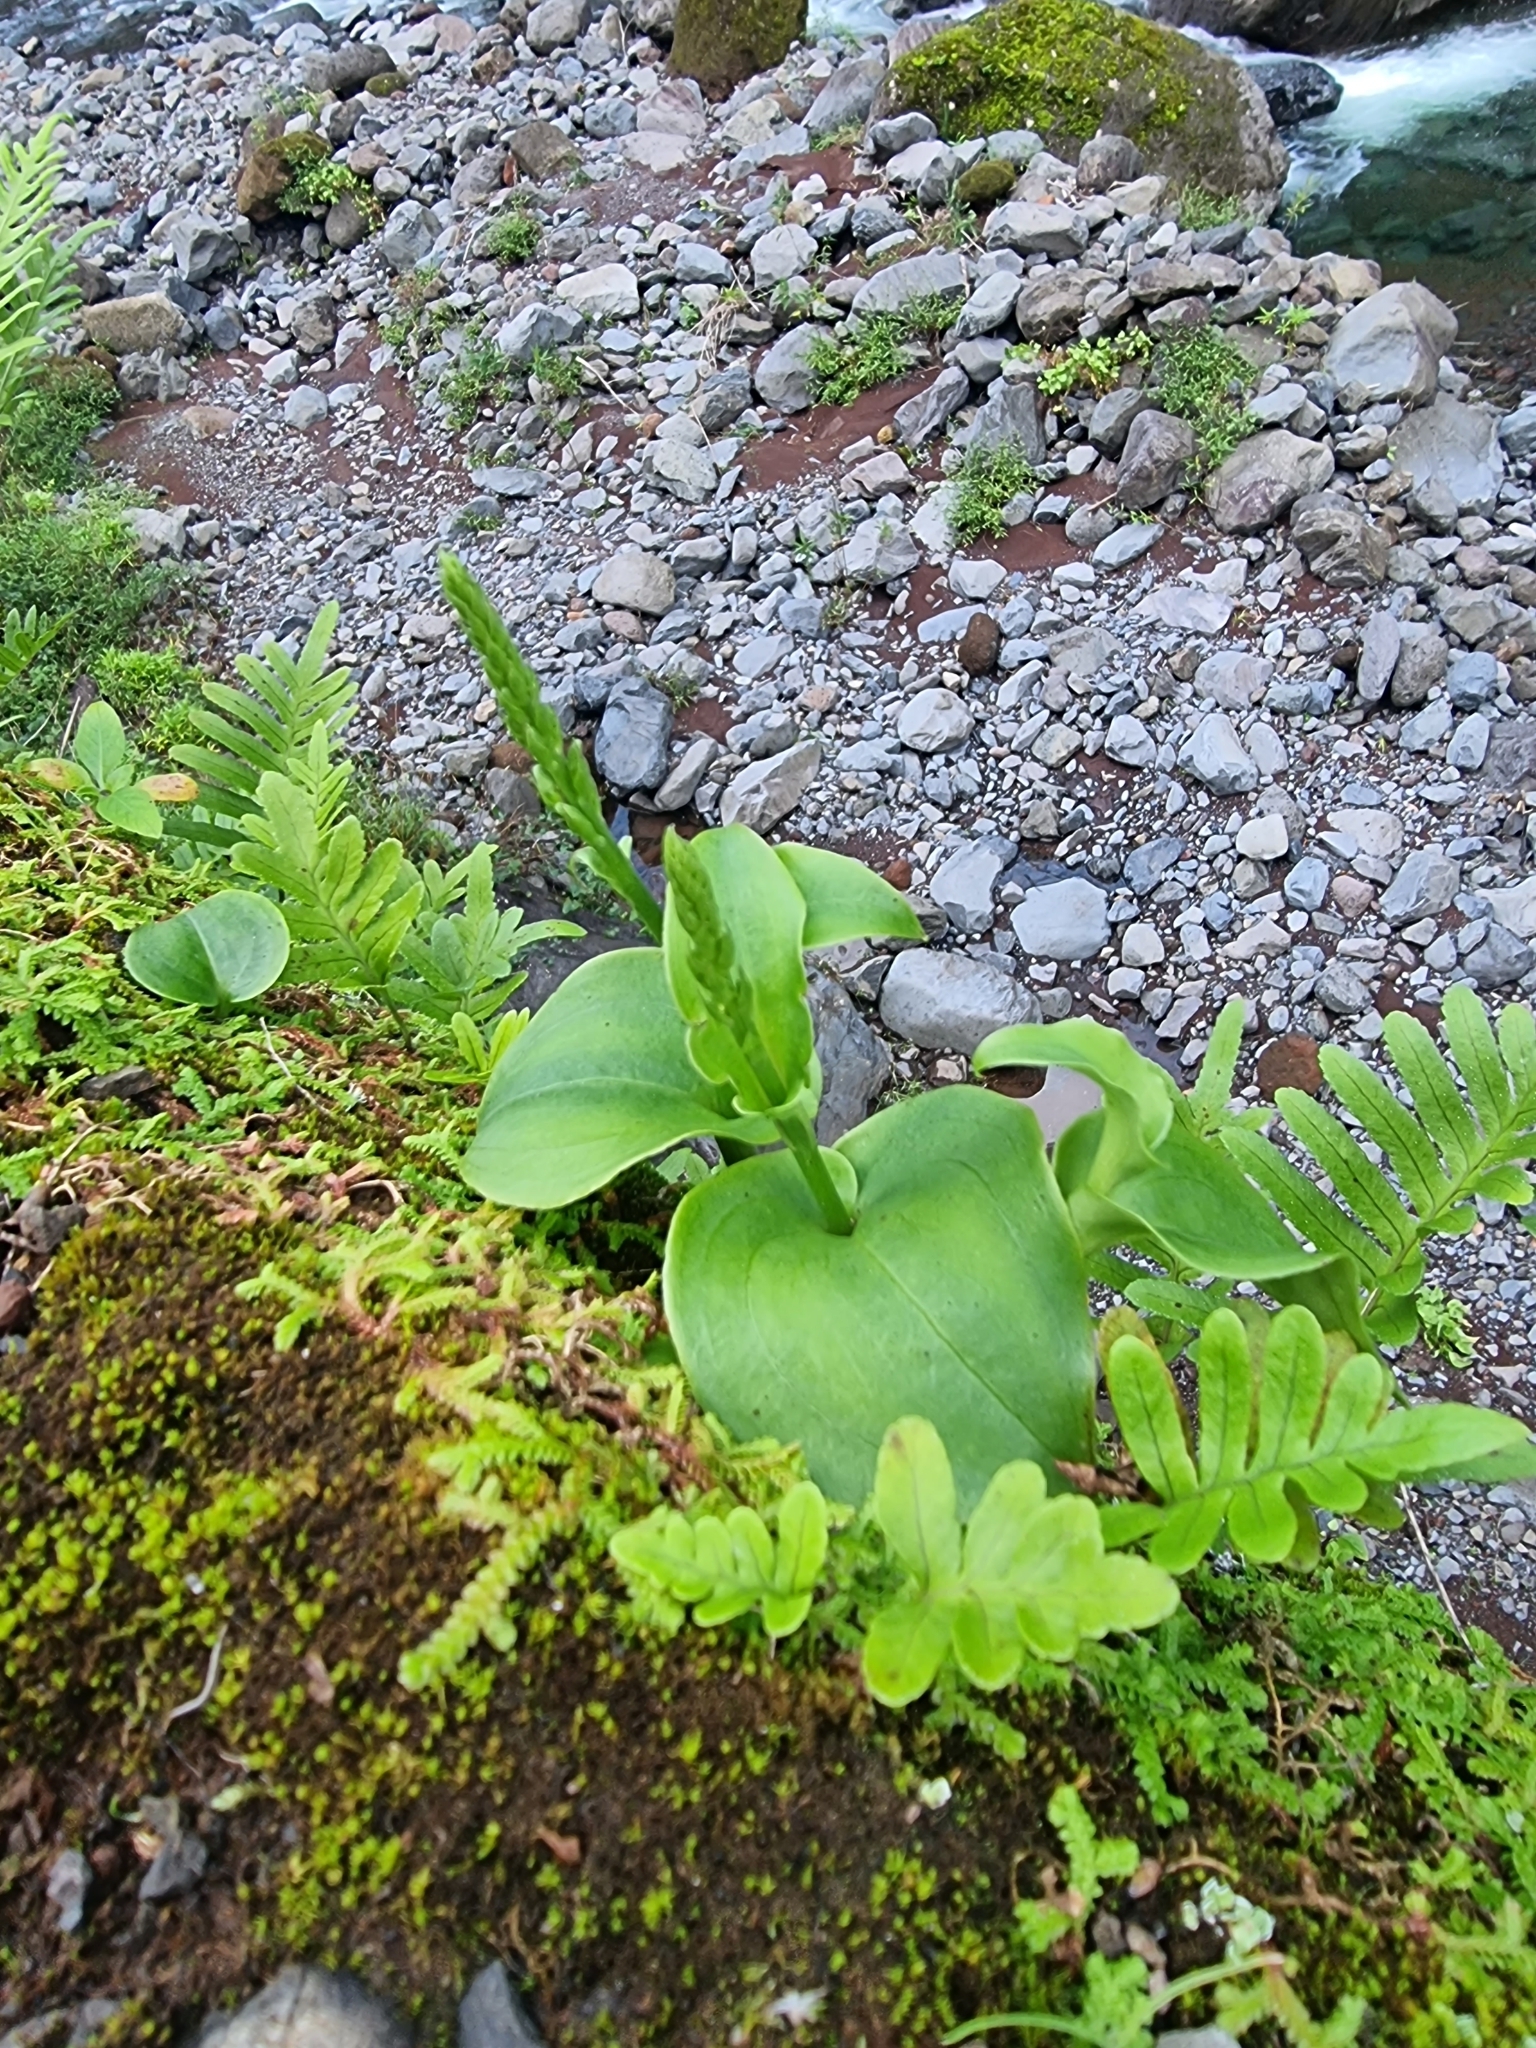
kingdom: Plantae
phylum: Tracheophyta
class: Liliopsida
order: Asparagales
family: Orchidaceae
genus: Gennaria
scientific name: Gennaria diphylla
